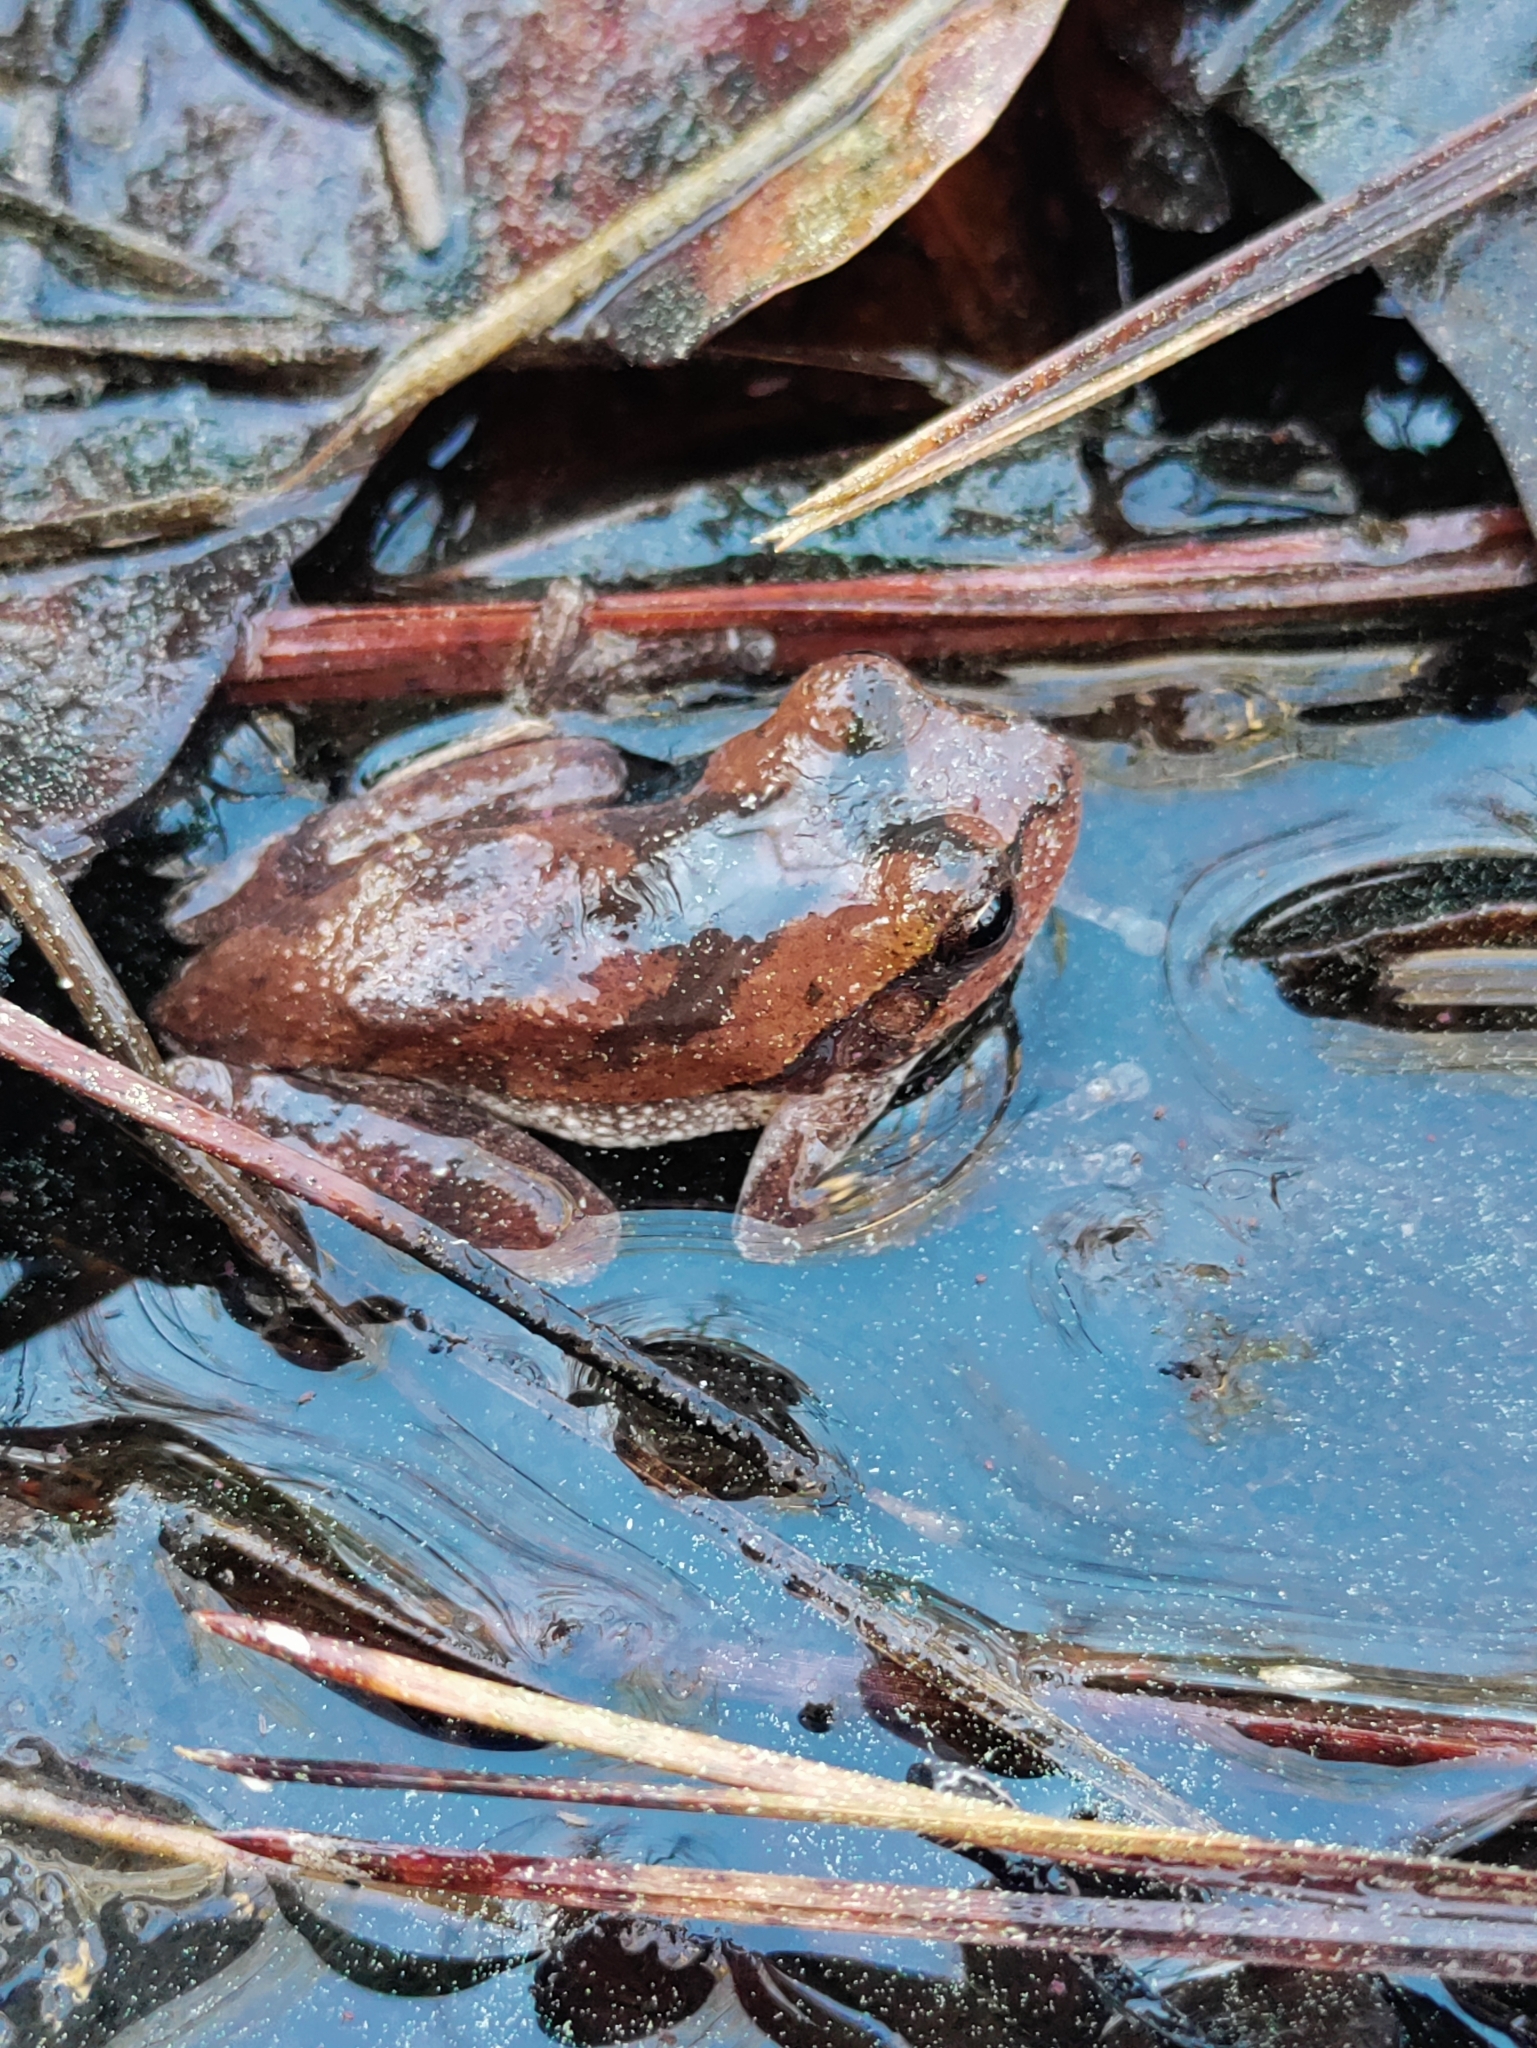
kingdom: Animalia
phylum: Chordata
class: Amphibia
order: Anura
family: Hylidae
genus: Hyla
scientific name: Hyla femoralis
